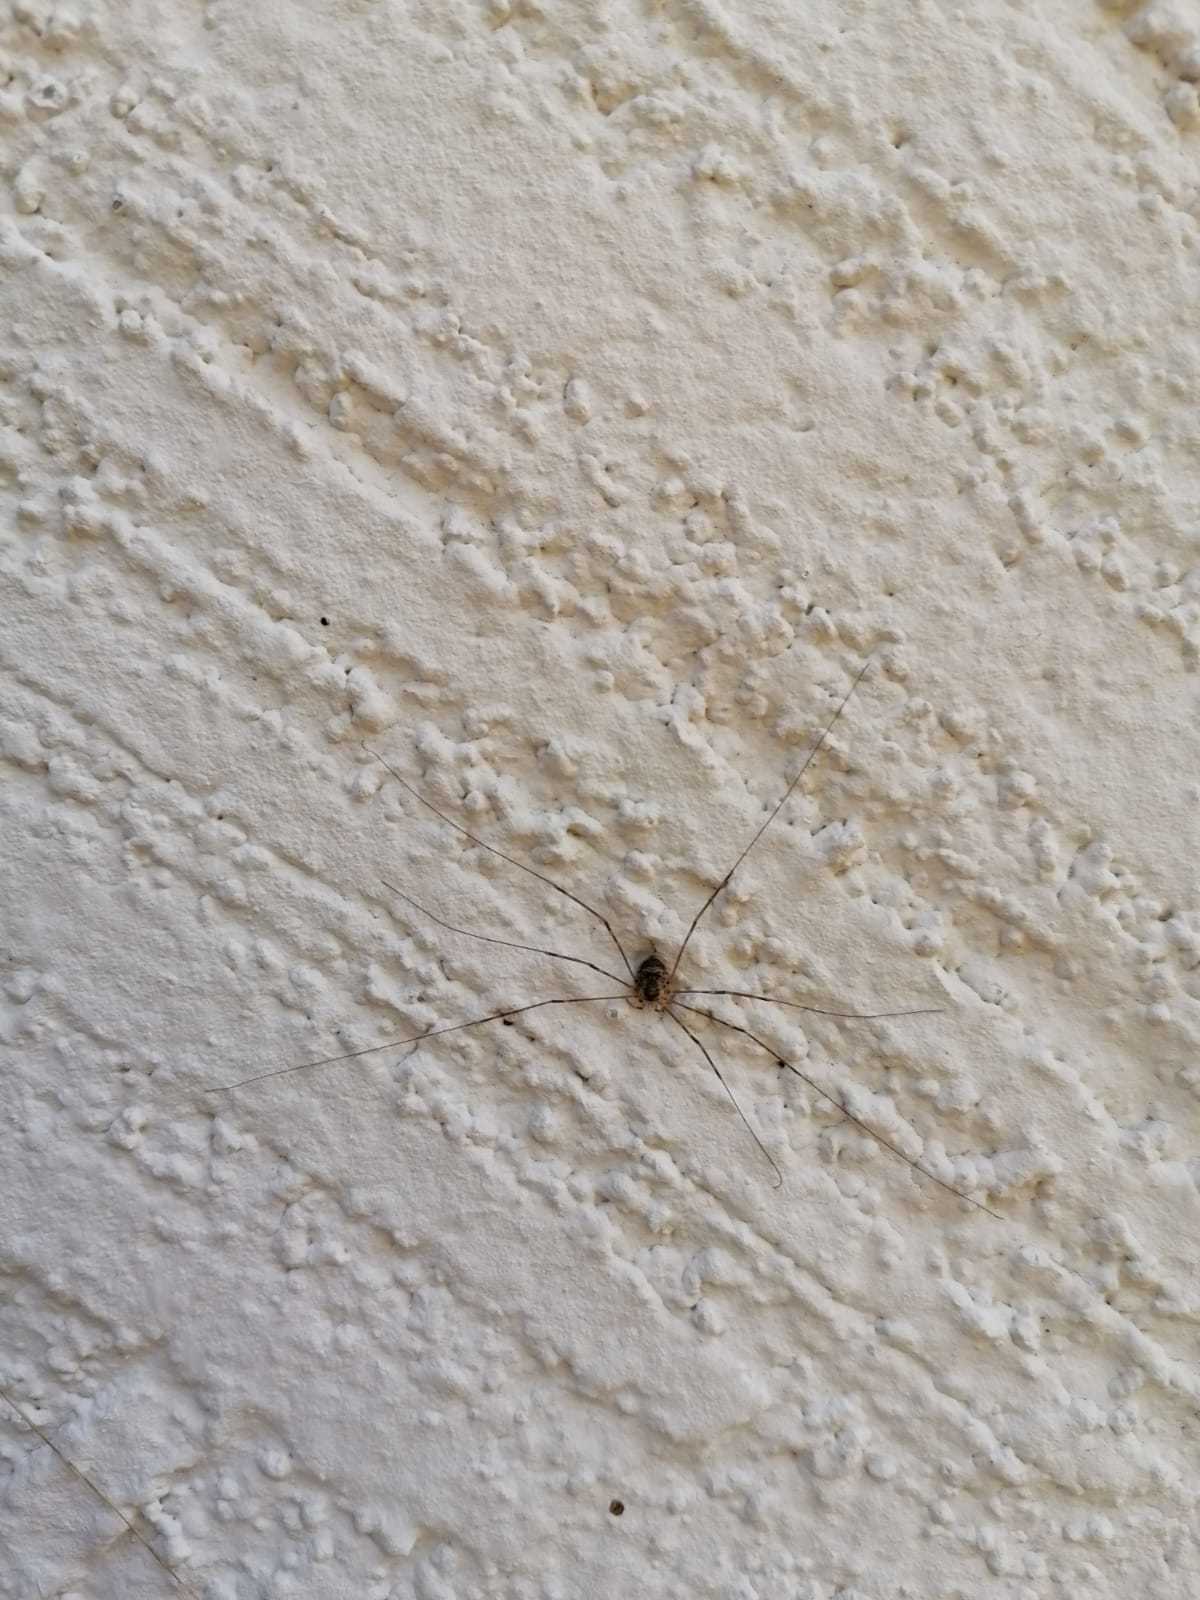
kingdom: Animalia
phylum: Arthropoda
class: Arachnida
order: Opiliones
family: Phalangiidae
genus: Amilenus
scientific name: Amilenus aurantiacus
